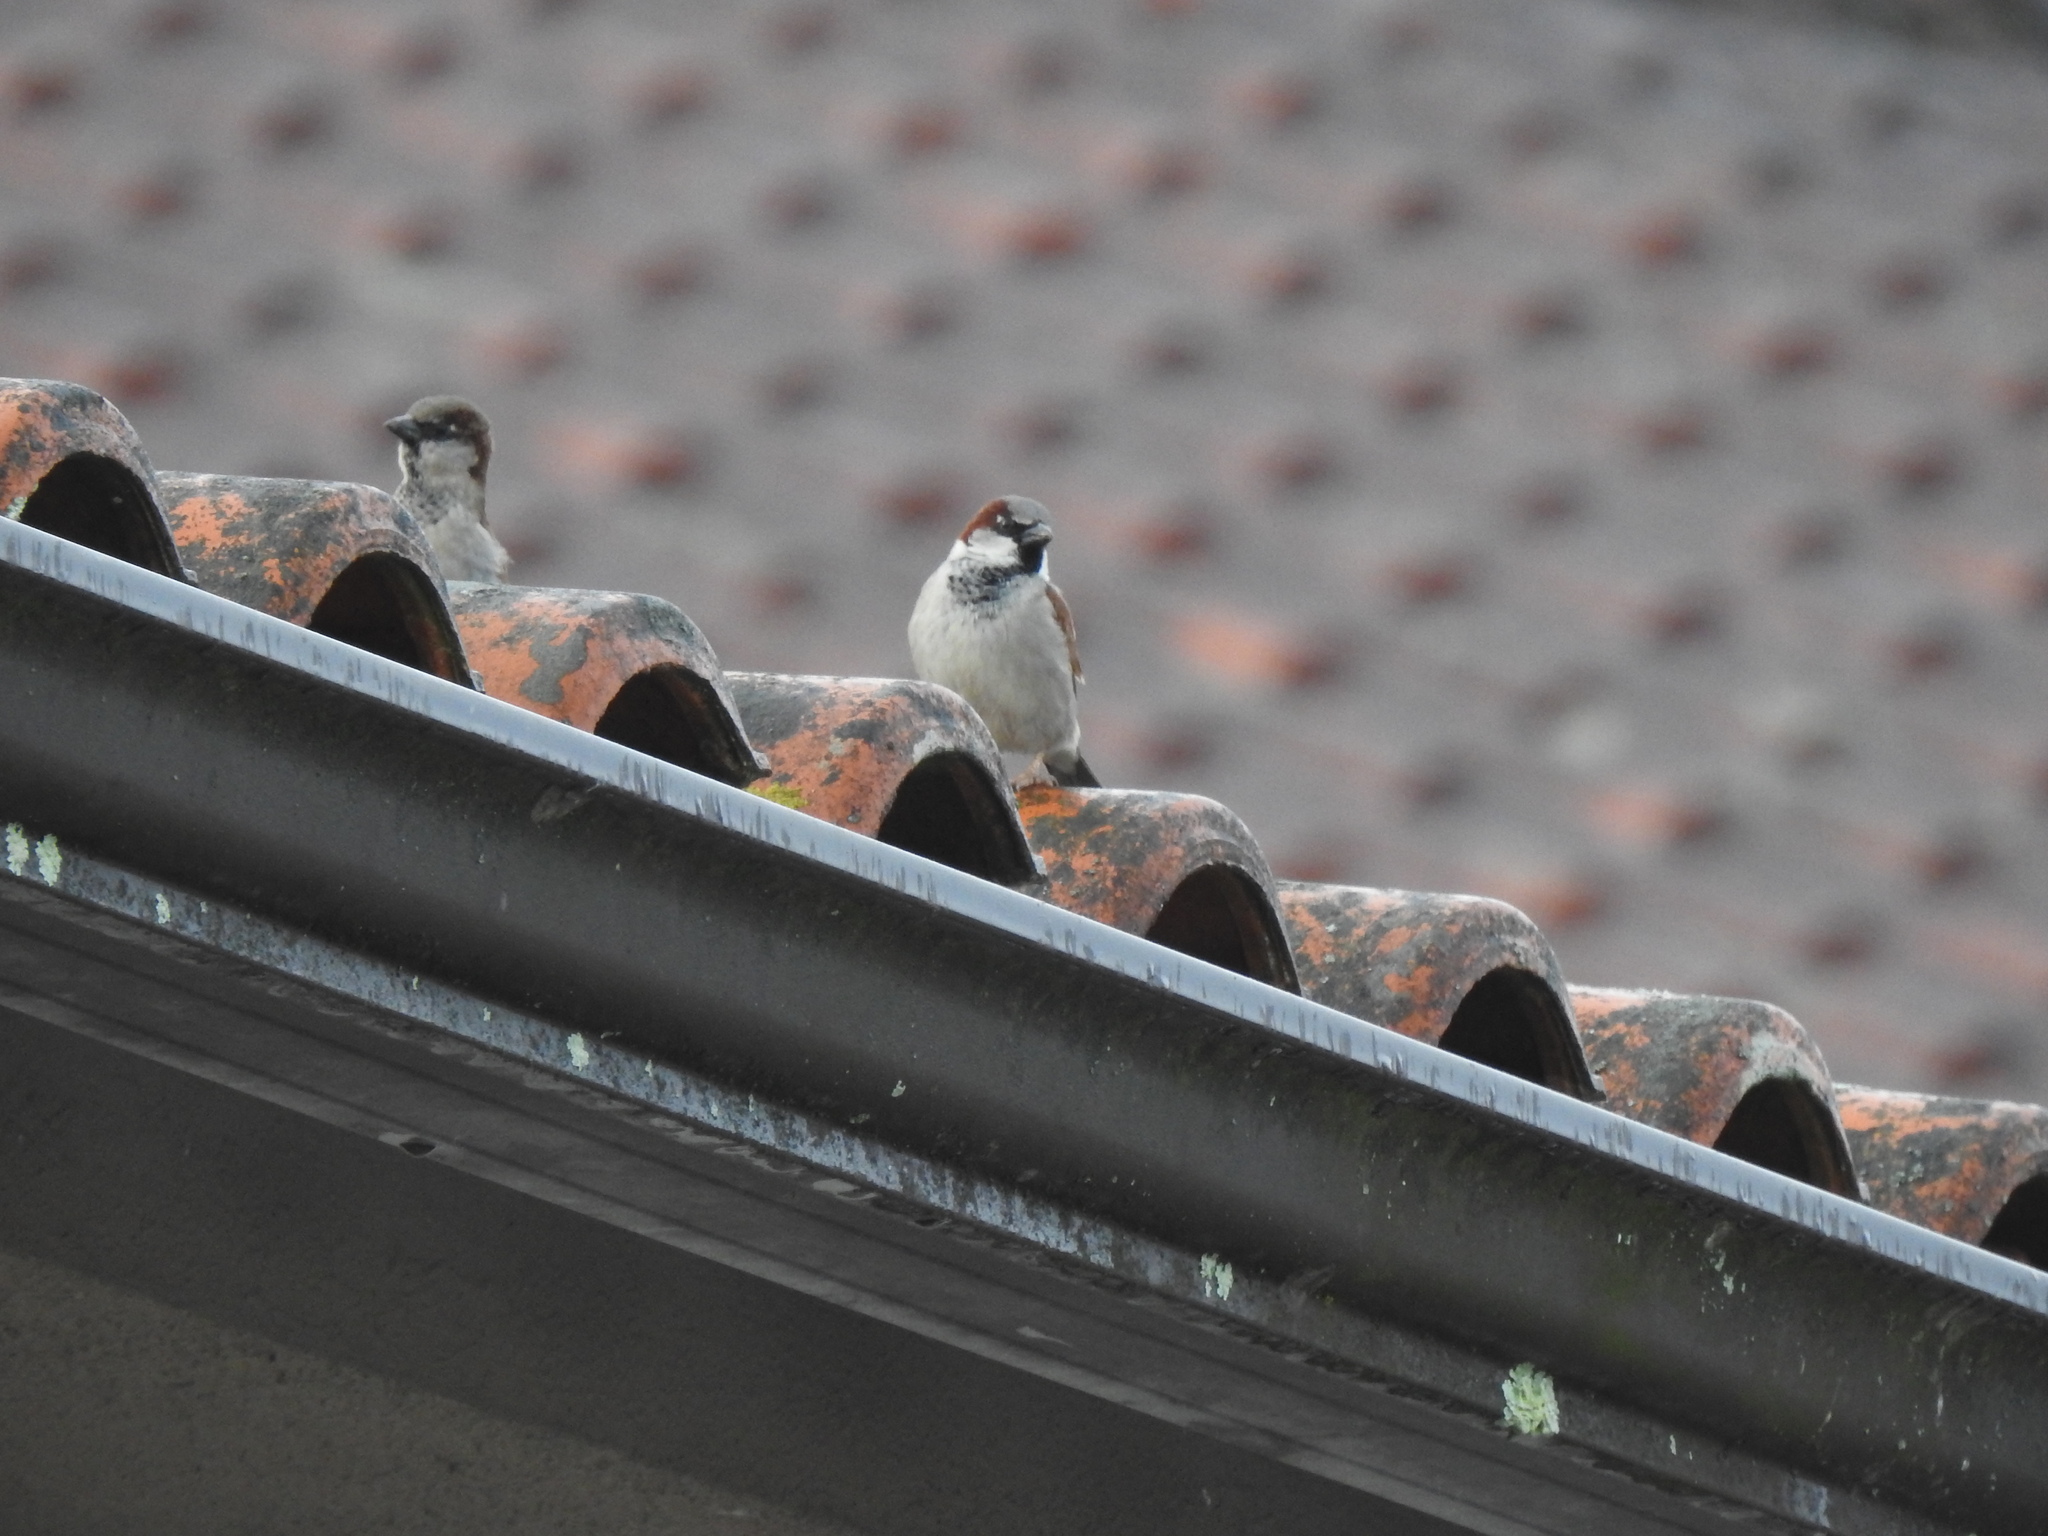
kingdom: Animalia
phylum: Chordata
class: Aves
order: Passeriformes
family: Passeridae
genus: Passer
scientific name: Passer domesticus
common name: House sparrow
